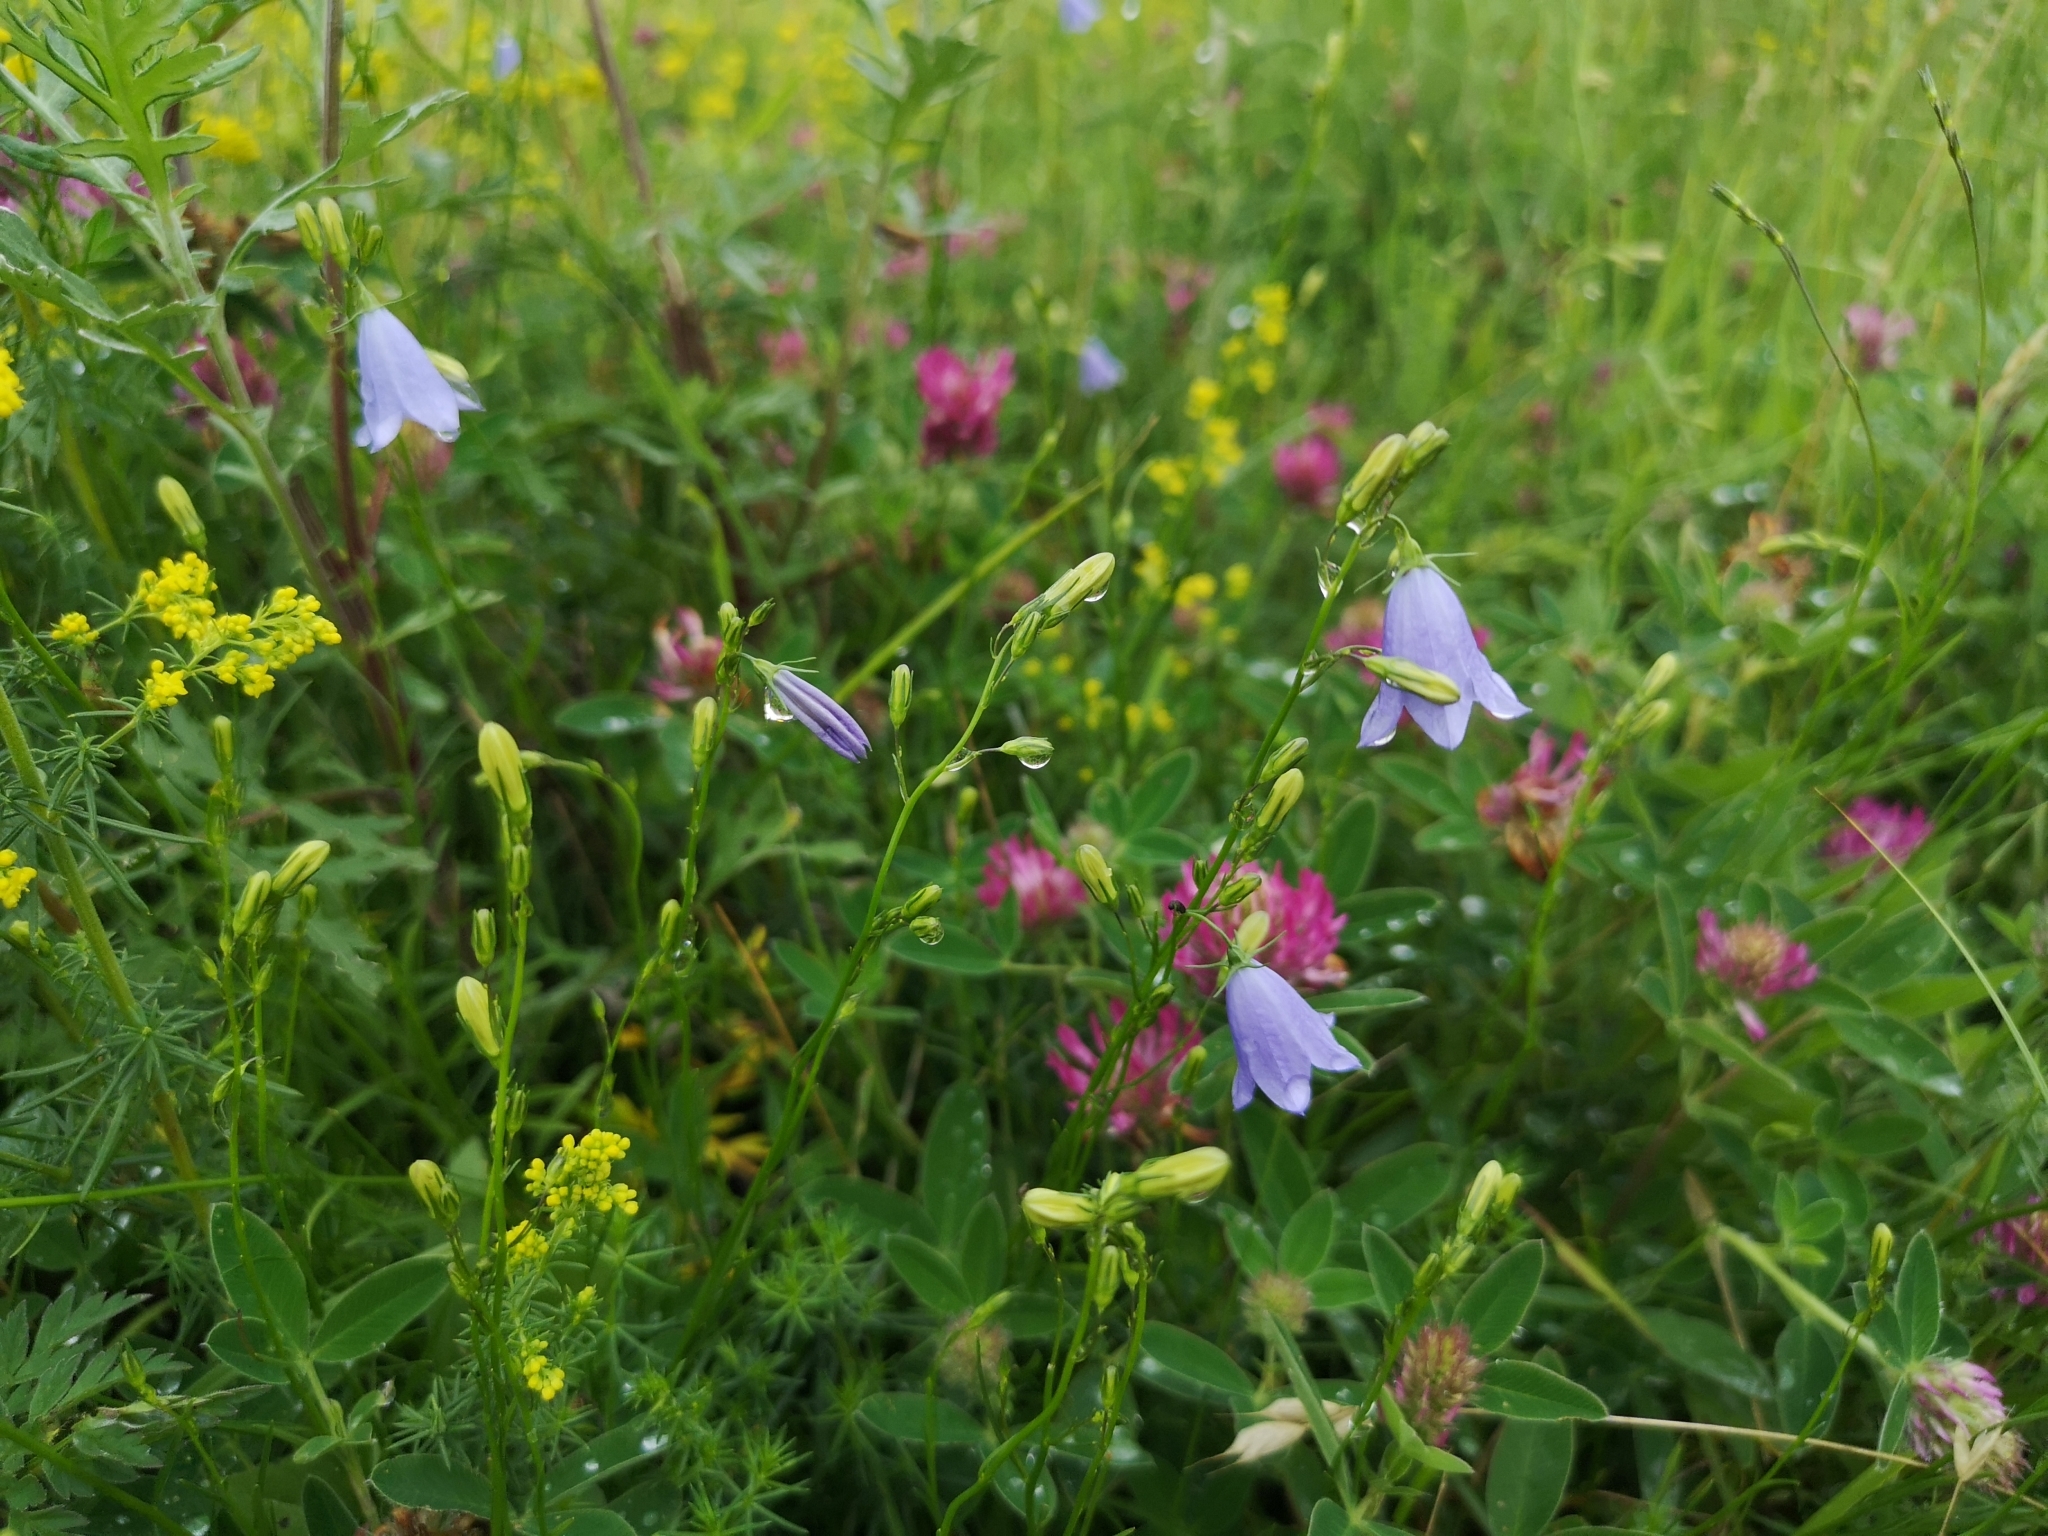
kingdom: Plantae
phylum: Tracheophyta
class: Magnoliopsida
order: Asterales
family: Campanulaceae
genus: Campanula
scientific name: Campanula rotundifolia
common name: Harebell
